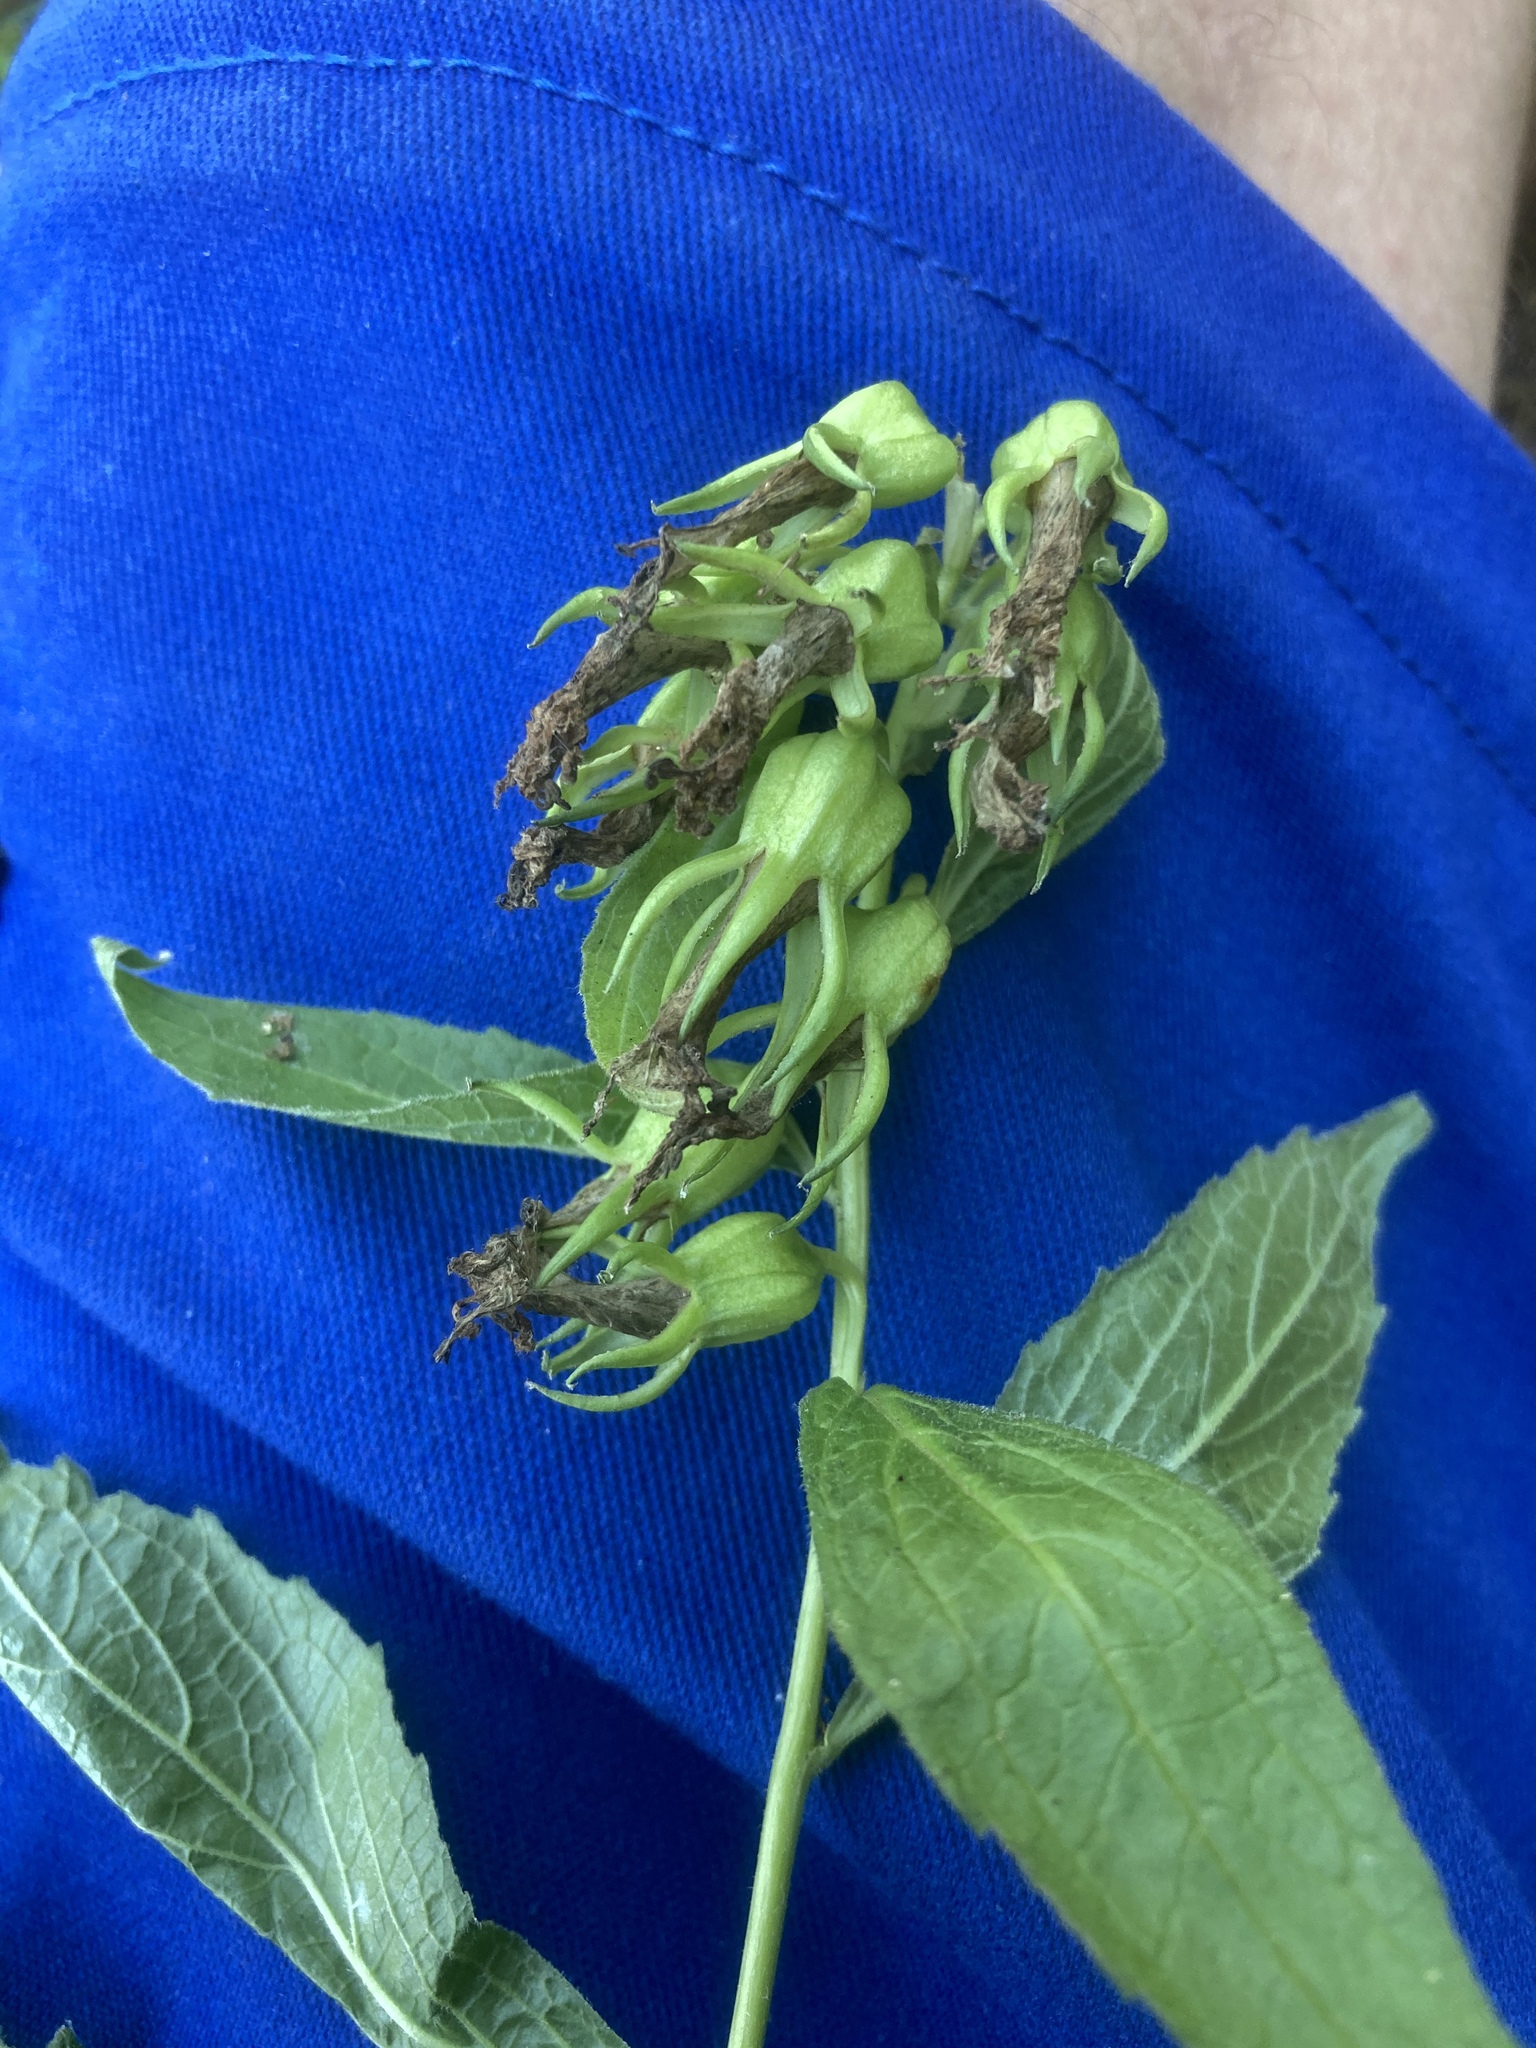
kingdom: Plantae
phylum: Tracheophyta
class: Magnoliopsida
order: Asterales
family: Campanulaceae
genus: Campanula
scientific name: Campanula latifolia
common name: Giant bellflower
